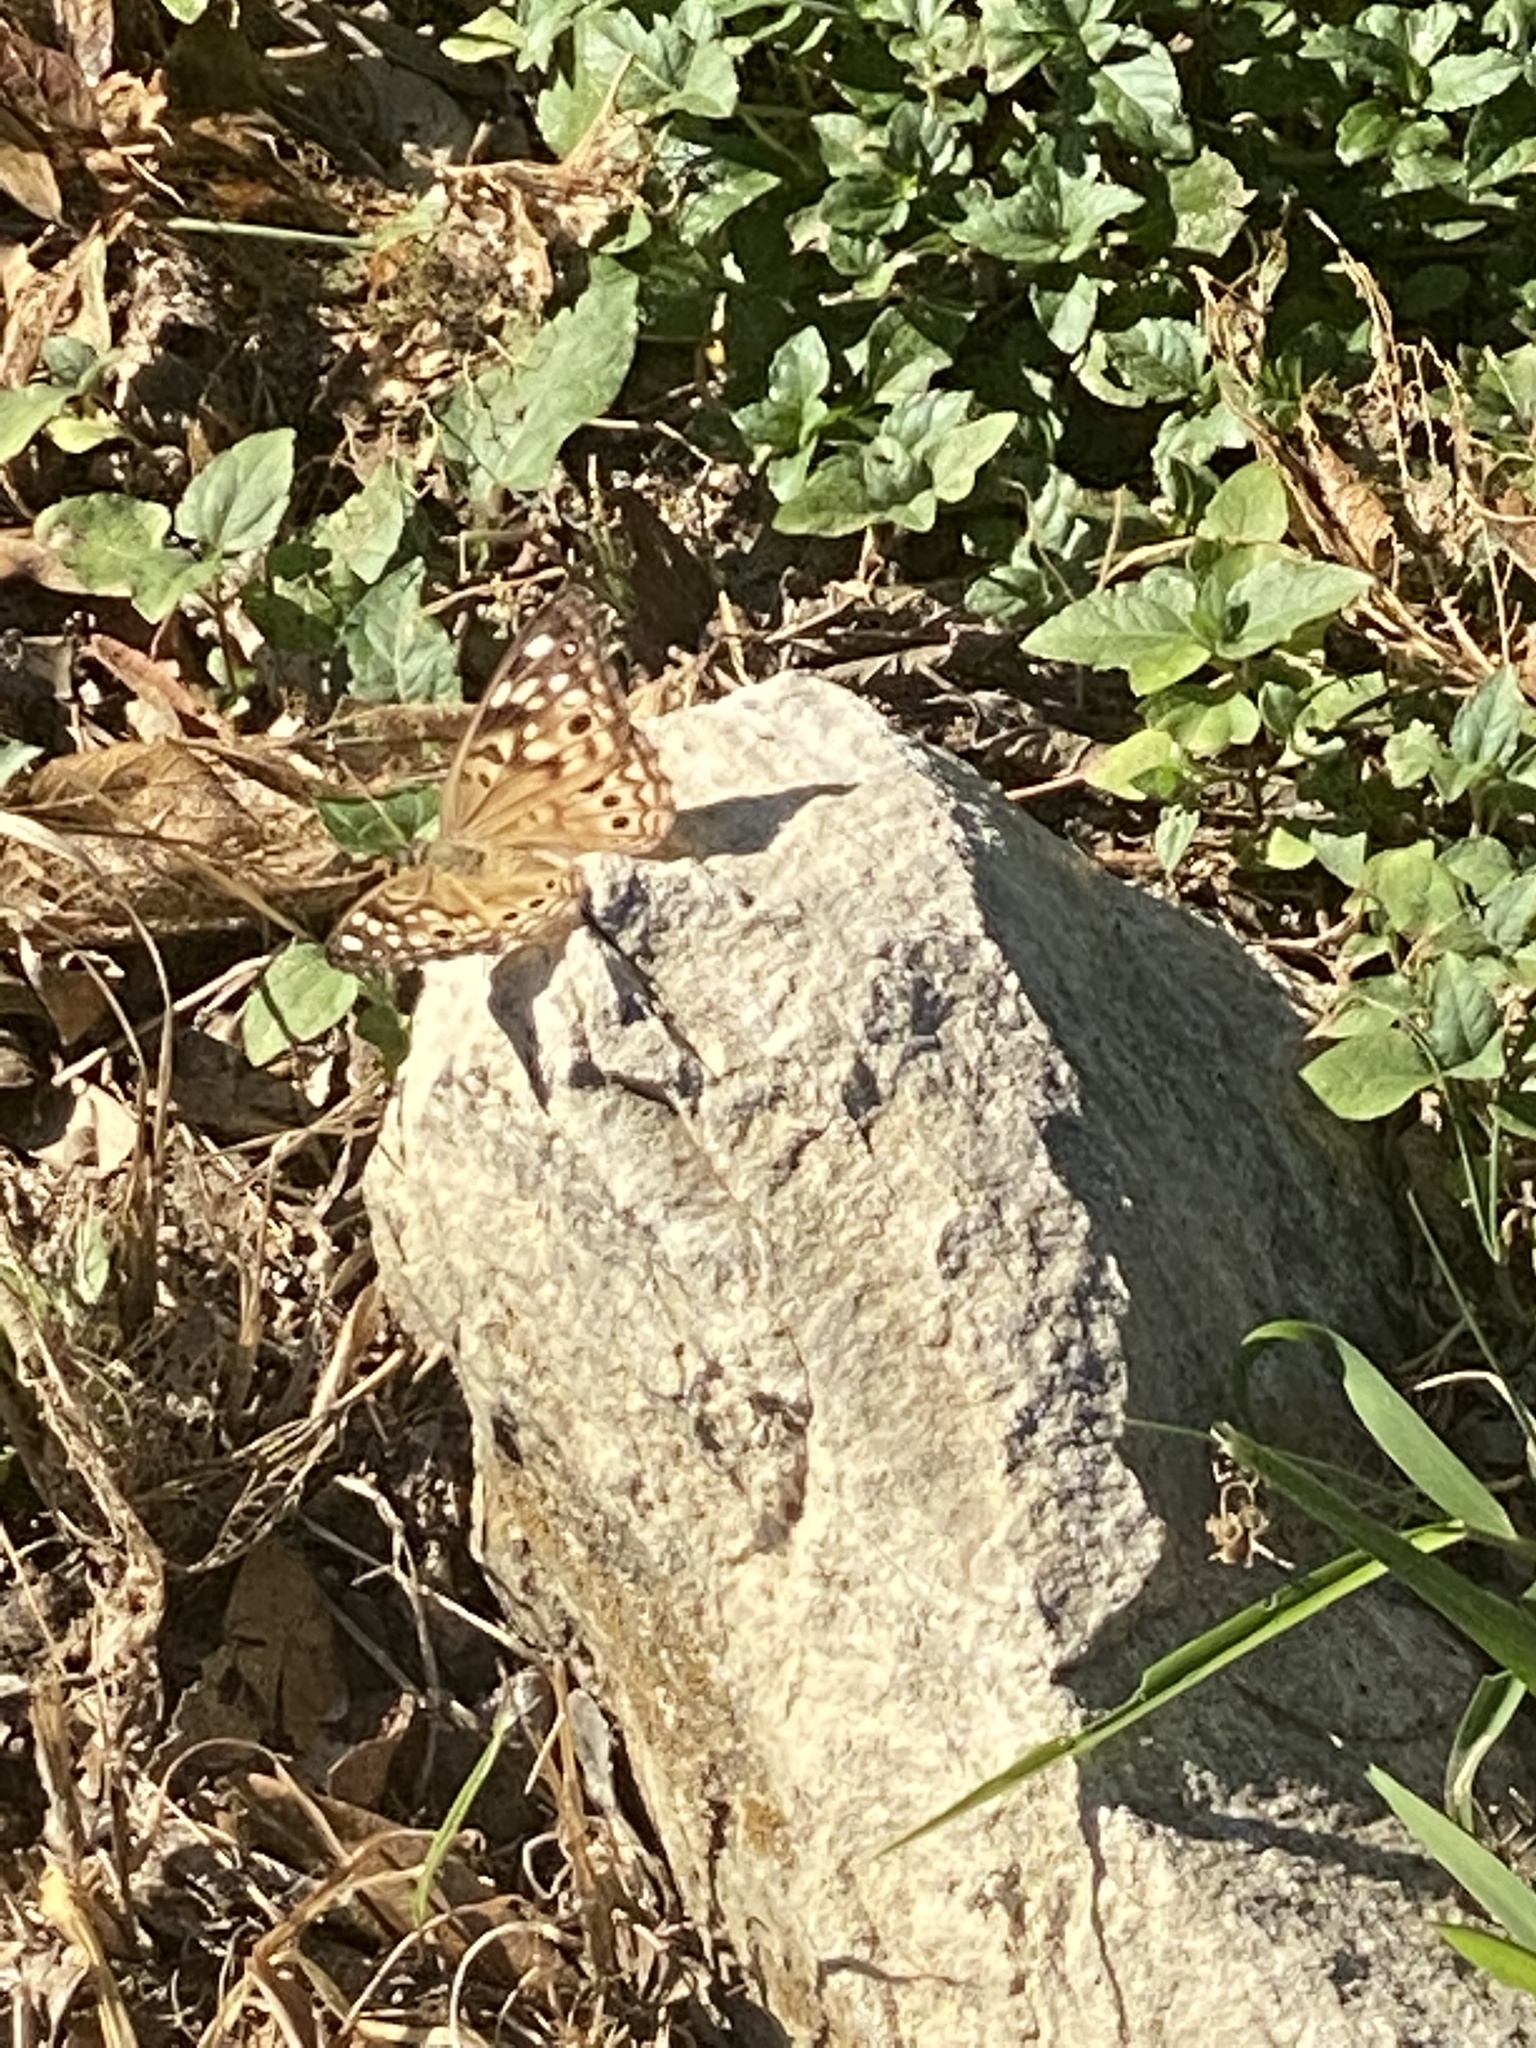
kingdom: Animalia
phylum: Arthropoda
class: Insecta
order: Lepidoptera
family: Nymphalidae
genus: Asterocampa
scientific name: Asterocampa celtis
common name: Hackberry emperor
